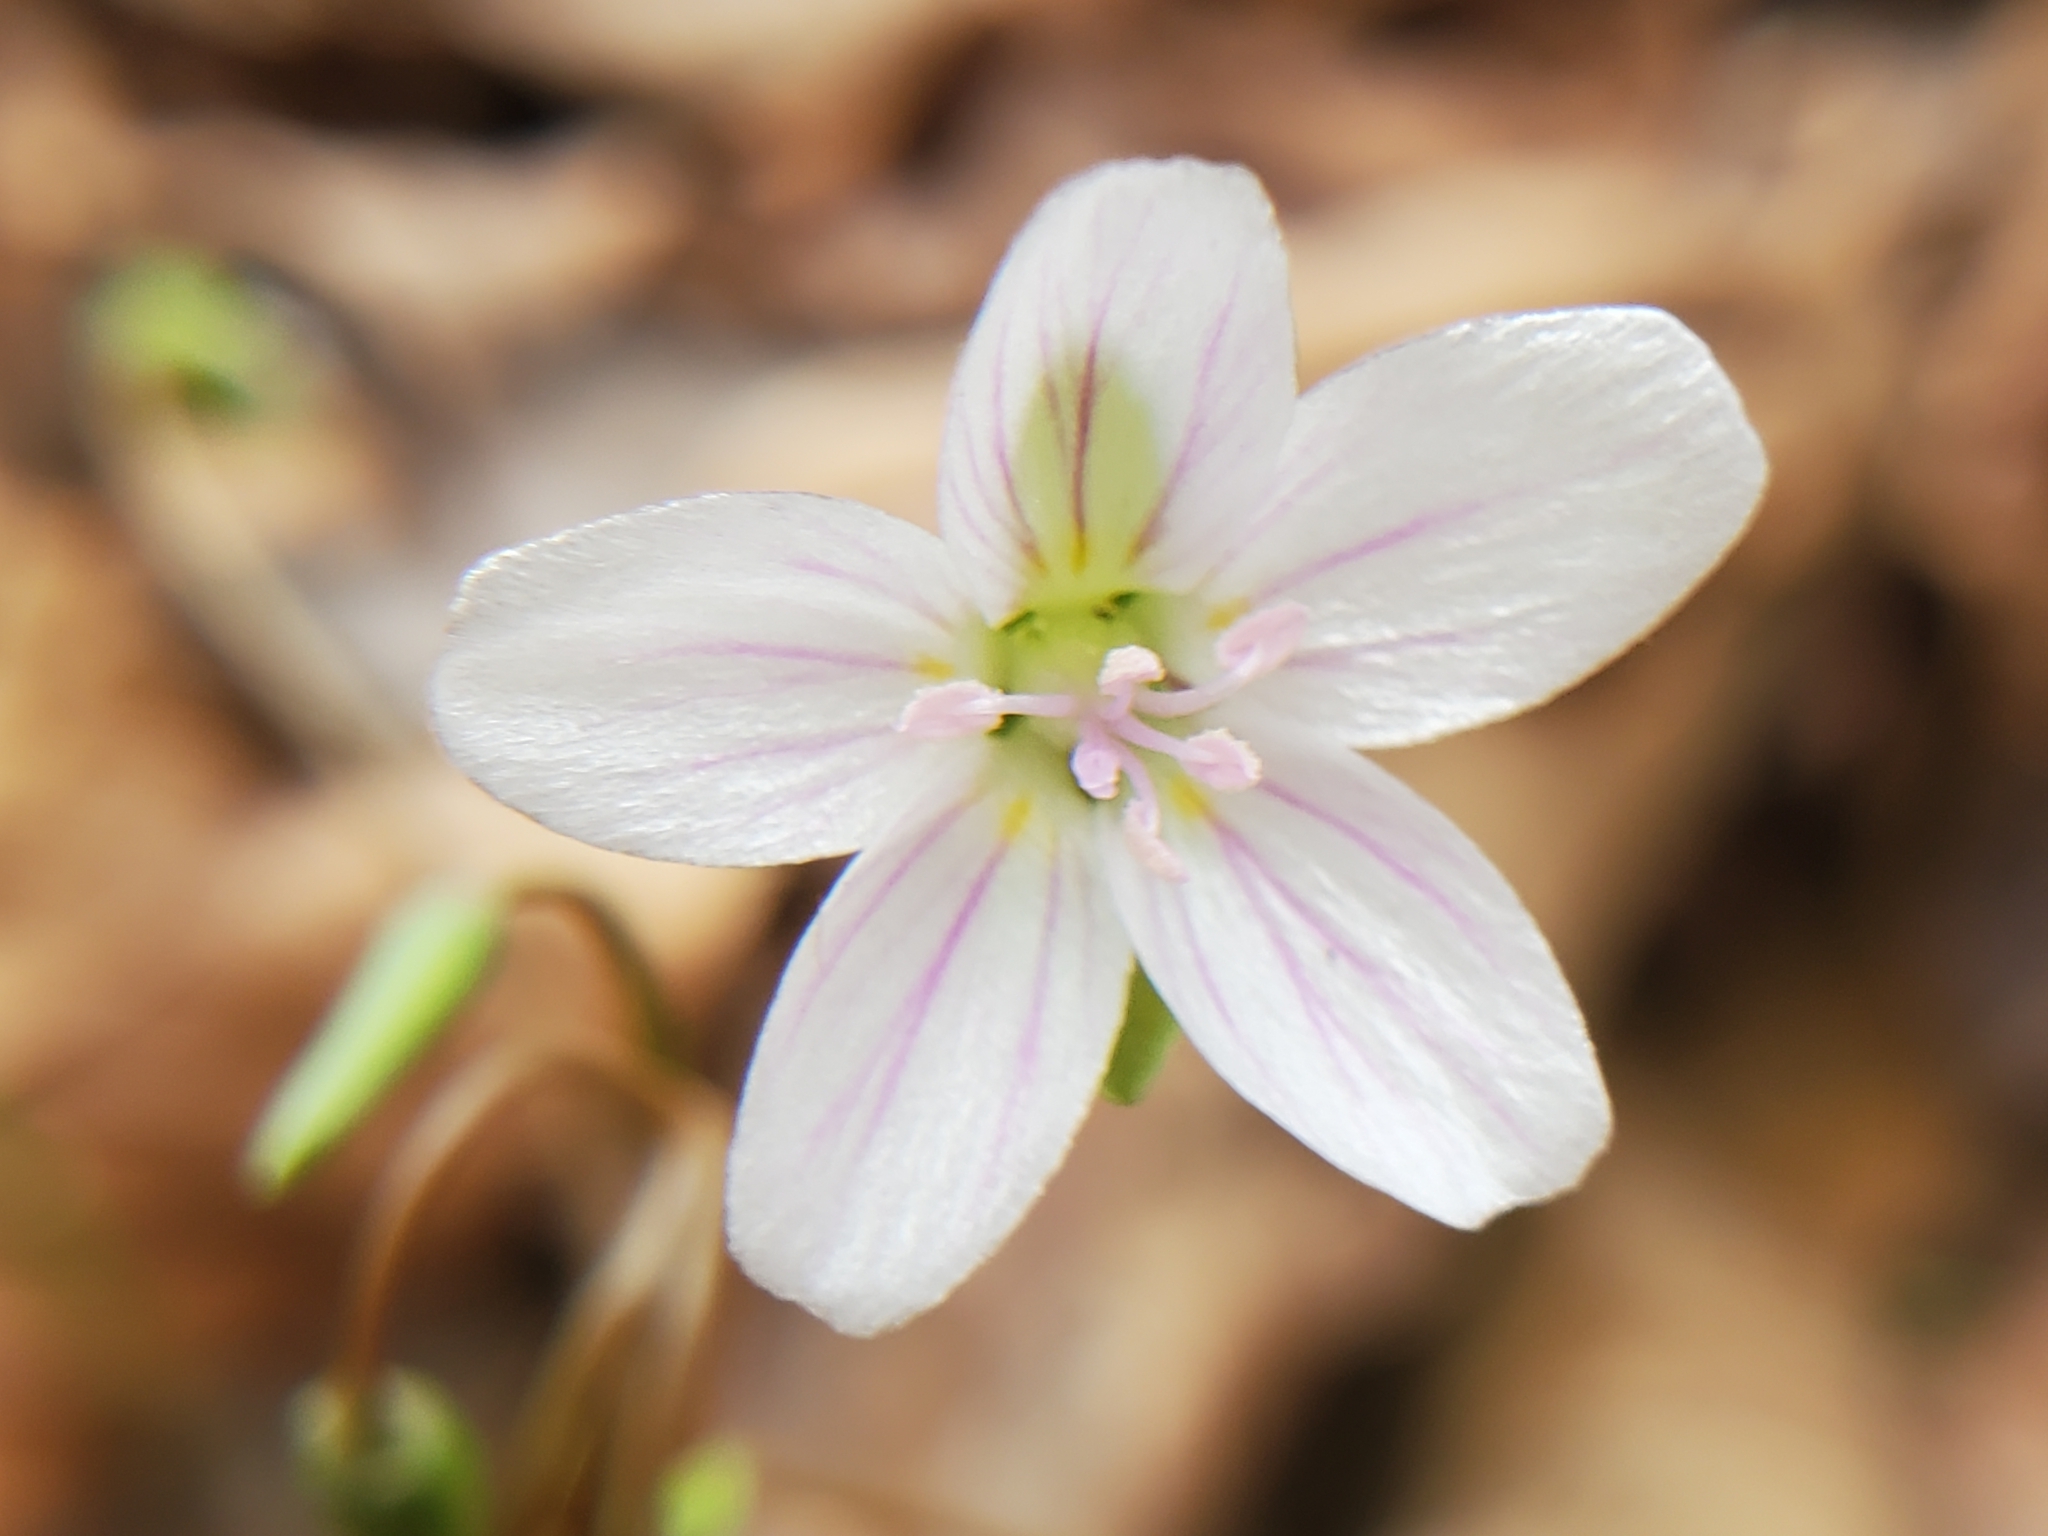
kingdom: Plantae
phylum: Tracheophyta
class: Magnoliopsida
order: Caryophyllales
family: Montiaceae
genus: Claytonia
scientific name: Claytonia virginica
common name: Virginia springbeauty
